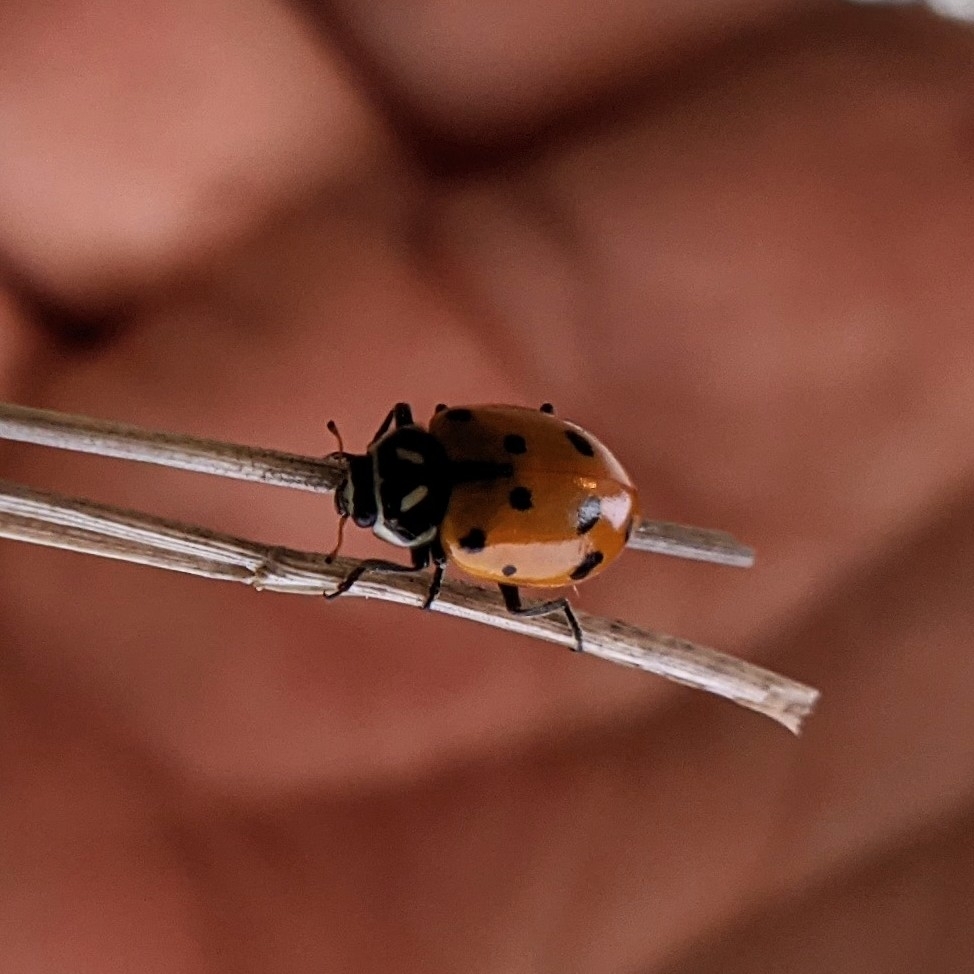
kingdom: Animalia
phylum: Arthropoda
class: Insecta
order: Coleoptera
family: Coccinellidae
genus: Hippodamia
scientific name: Hippodamia convergens
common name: Convergent lady beetle
